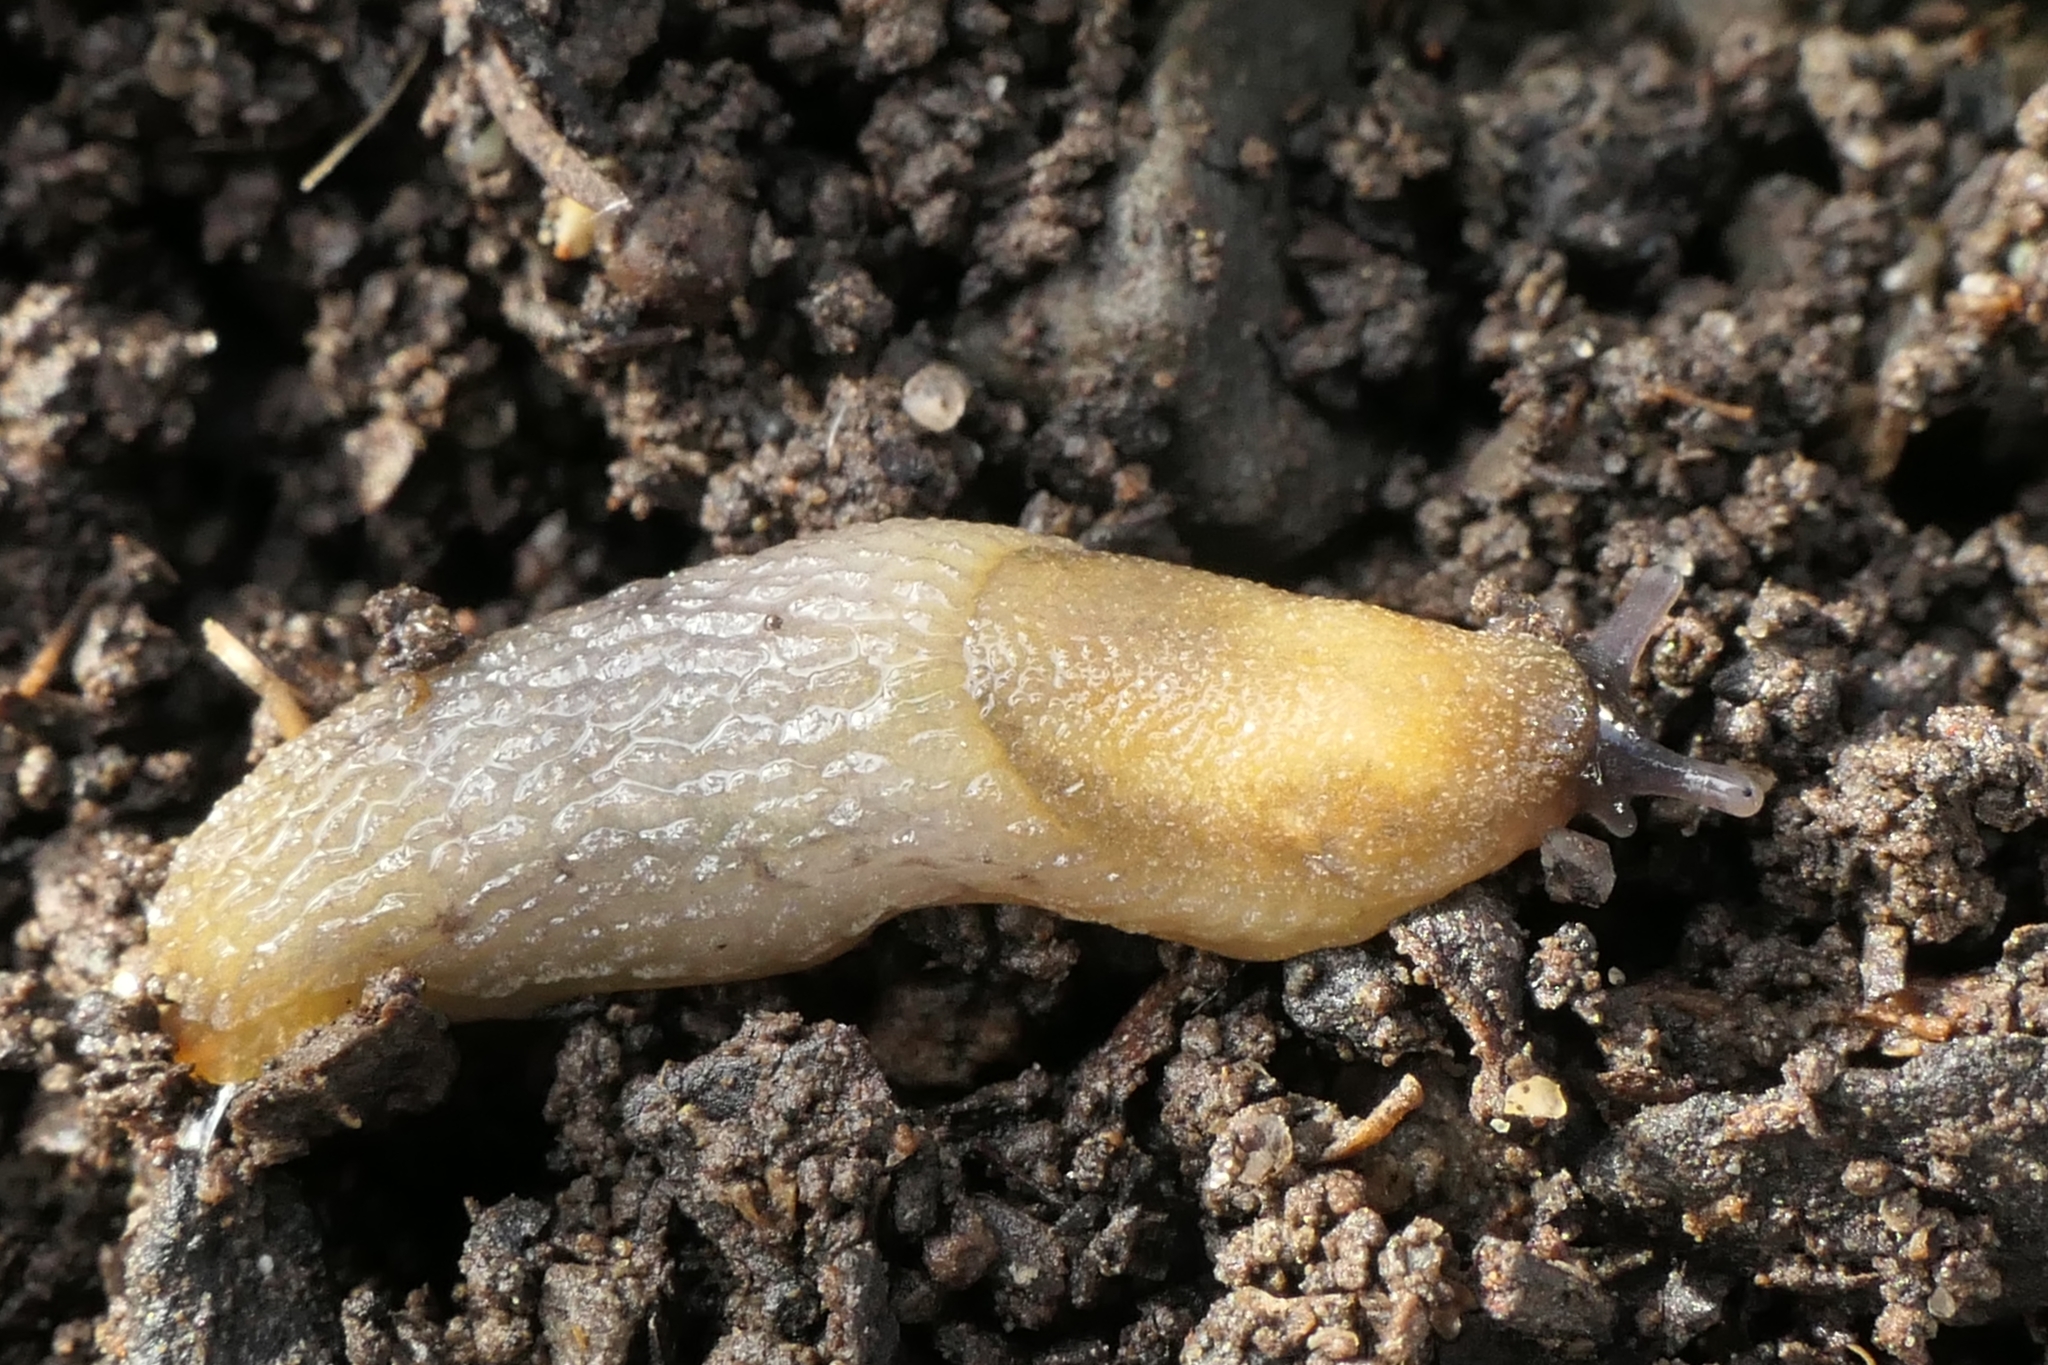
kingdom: Animalia
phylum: Mollusca
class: Gastropoda
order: Stylommatophora
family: Arionidae
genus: Arion
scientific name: Arion intermedius
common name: Hedgehog slug
